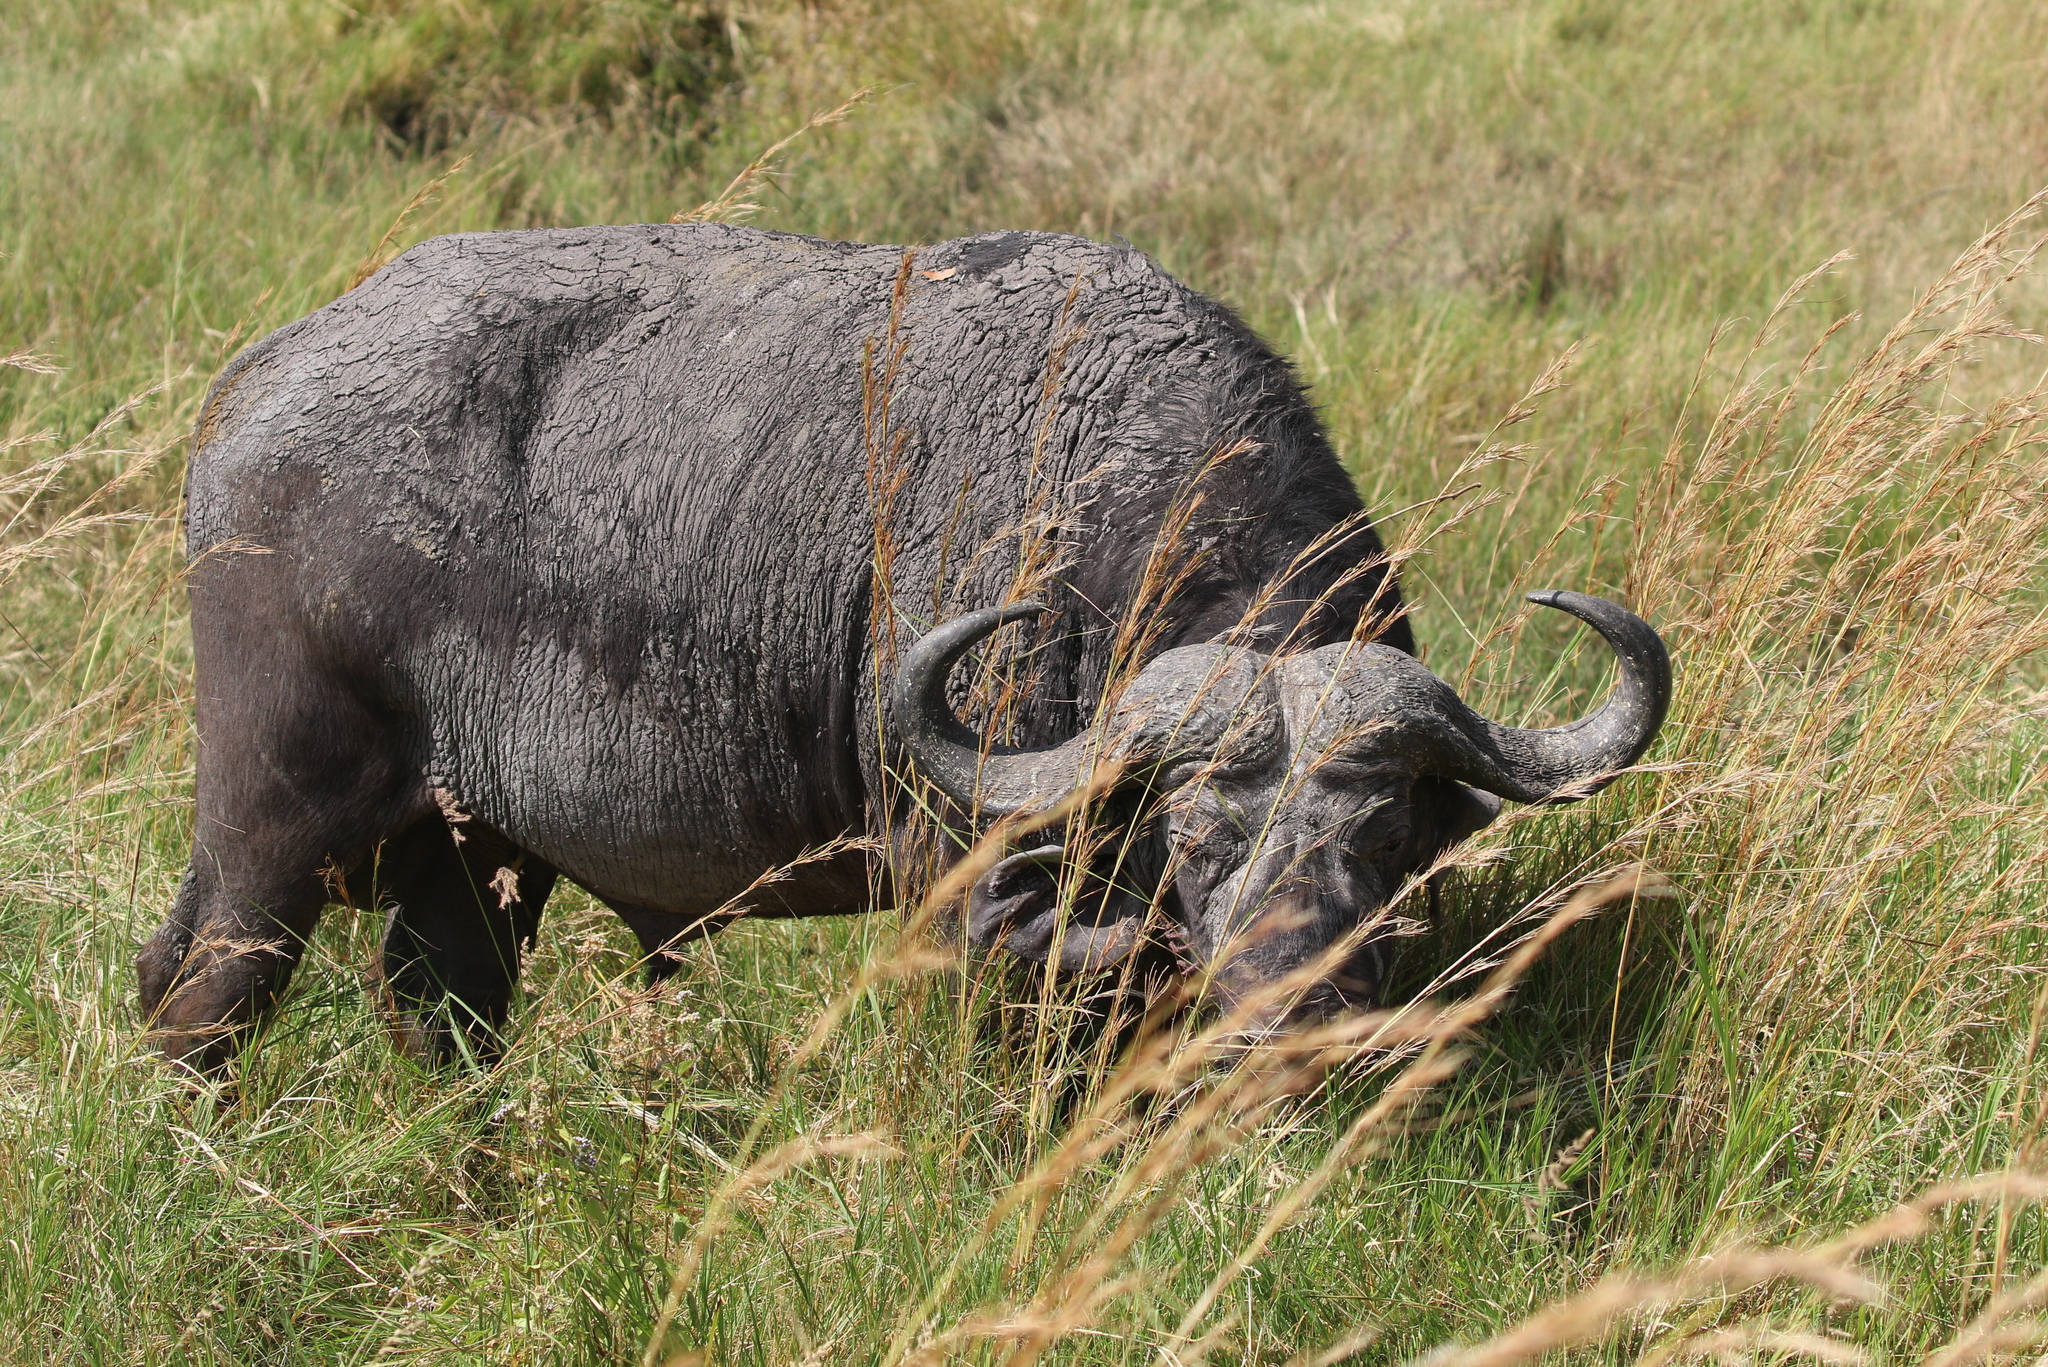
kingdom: Animalia
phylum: Chordata
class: Mammalia
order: Artiodactyla
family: Bovidae
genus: Syncerus
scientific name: Syncerus caffer
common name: African buffalo
